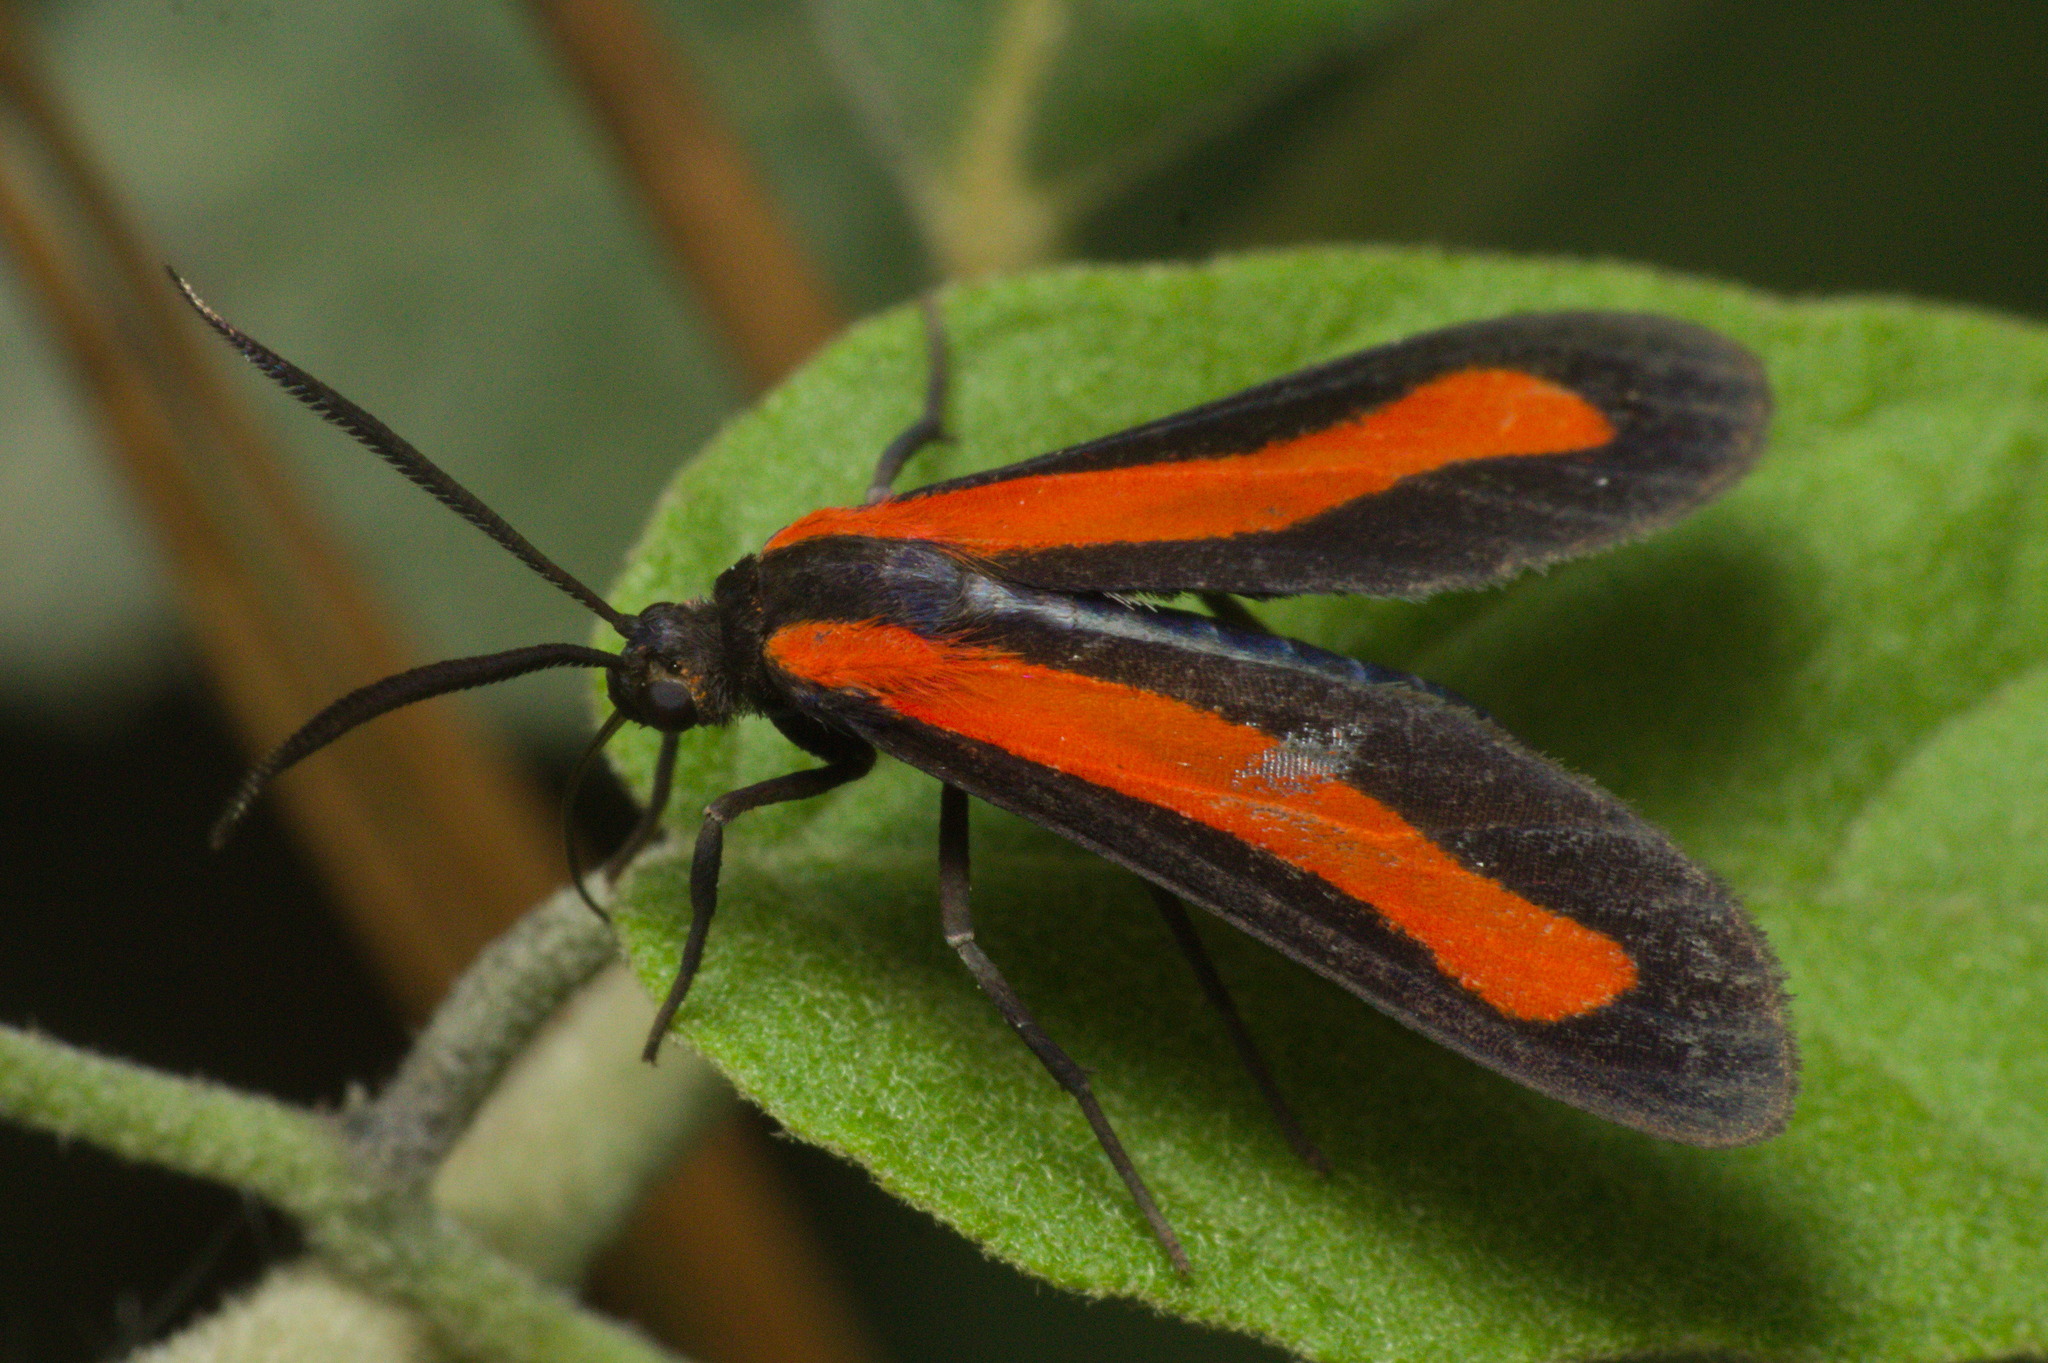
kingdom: Animalia
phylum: Arthropoda
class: Insecta
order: Lepidoptera
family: Erebidae
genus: Tipulodes
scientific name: Tipulodes ima
